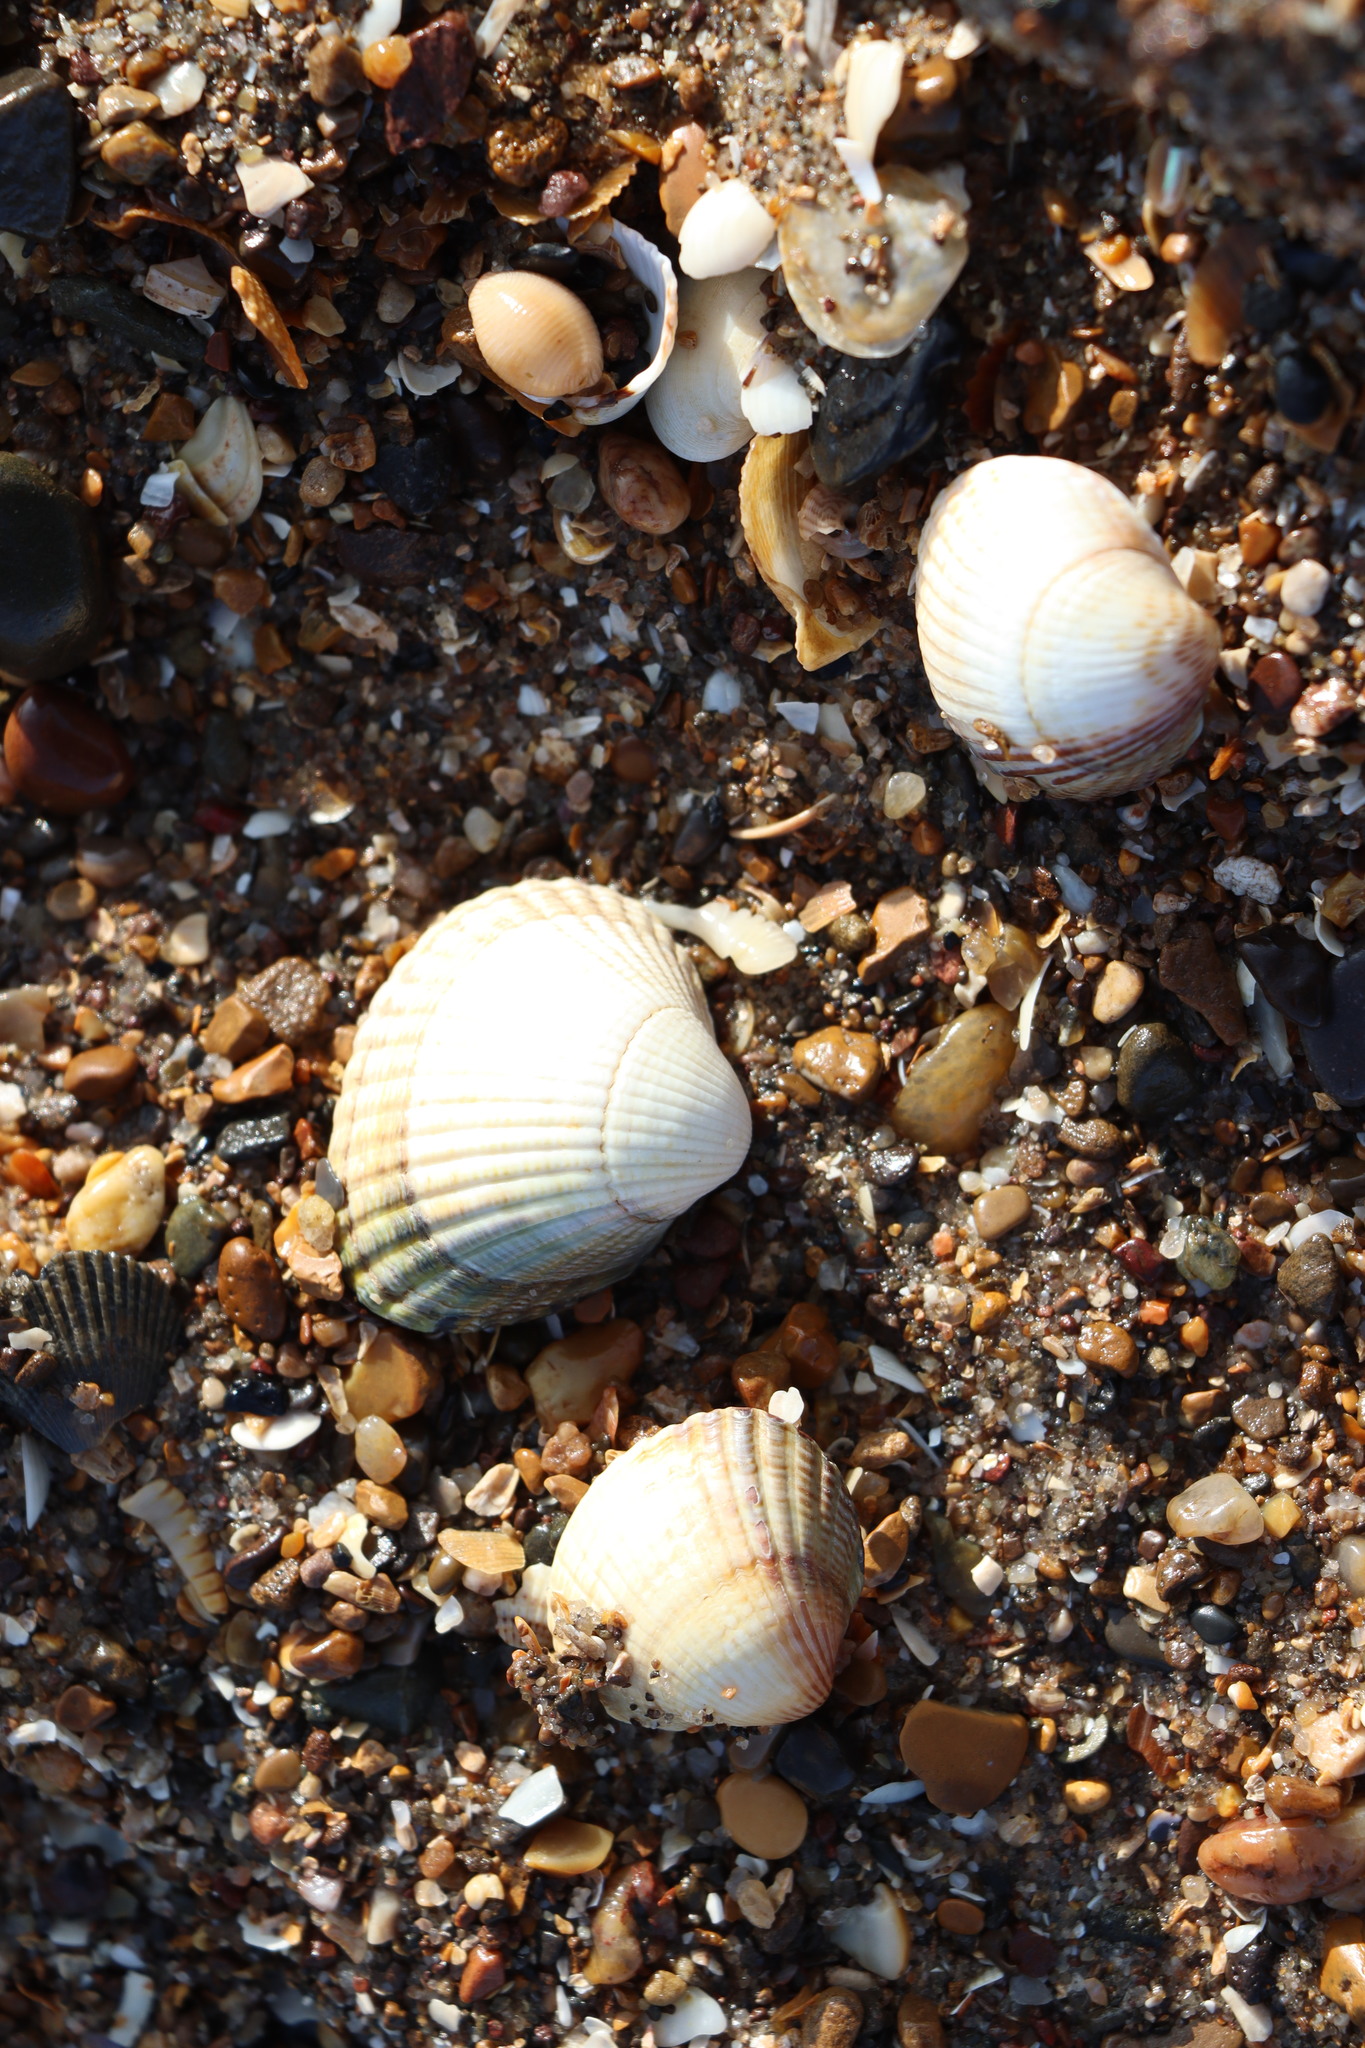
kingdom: Animalia
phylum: Mollusca
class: Bivalvia
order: Cardiida
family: Cardiidae
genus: Cerastoderma
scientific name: Cerastoderma edule
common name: Common cockle
